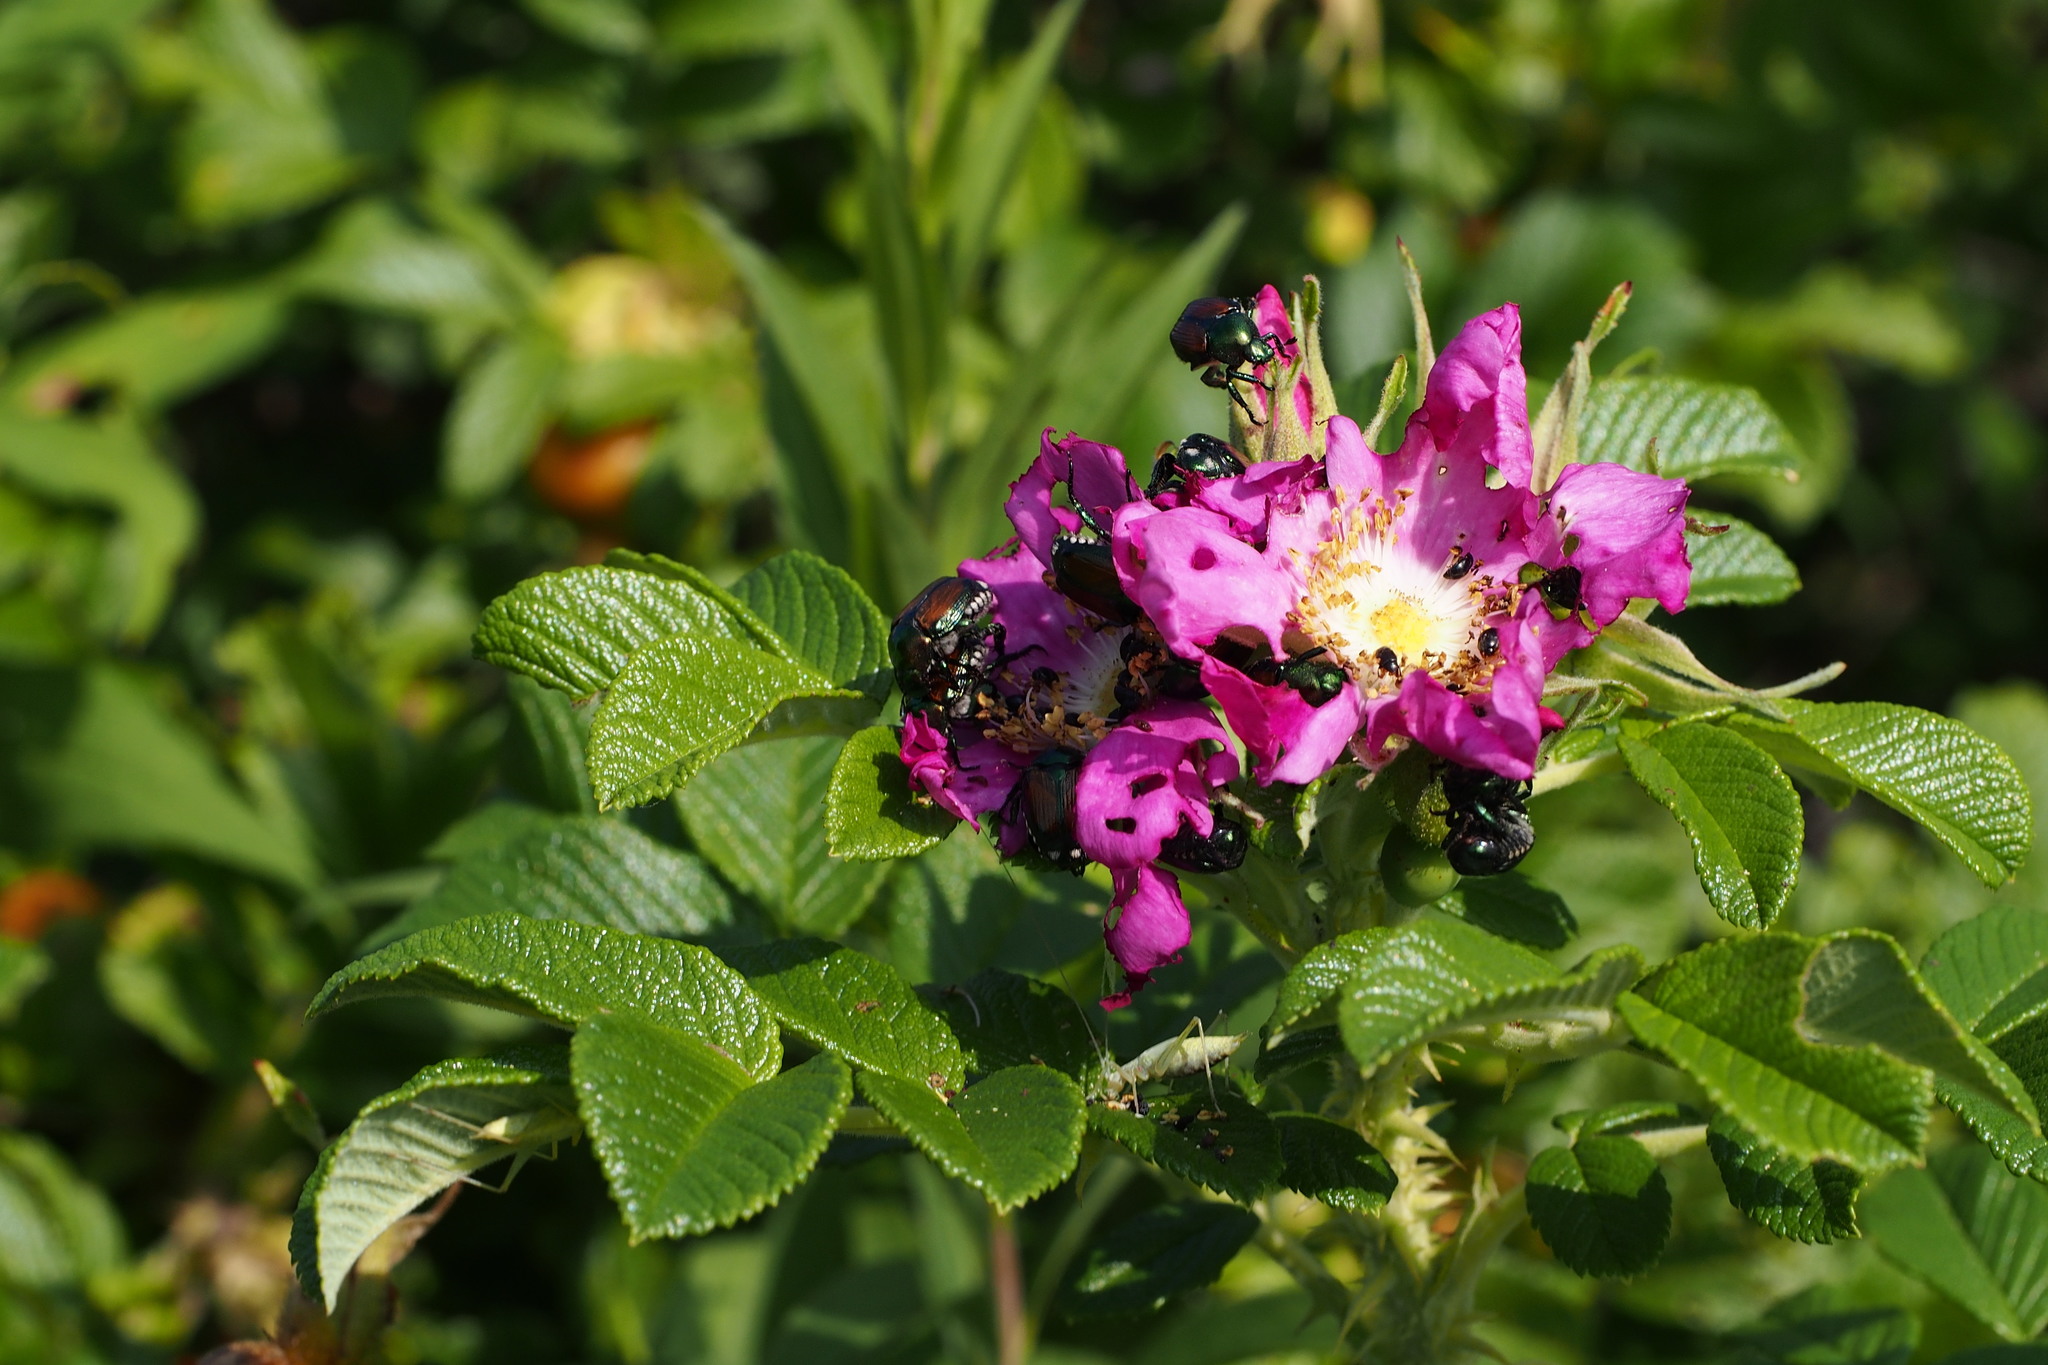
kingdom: Animalia
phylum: Arthropoda
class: Insecta
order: Coleoptera
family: Scarabaeidae
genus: Popillia
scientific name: Popillia japonica
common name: Japanese beetle
